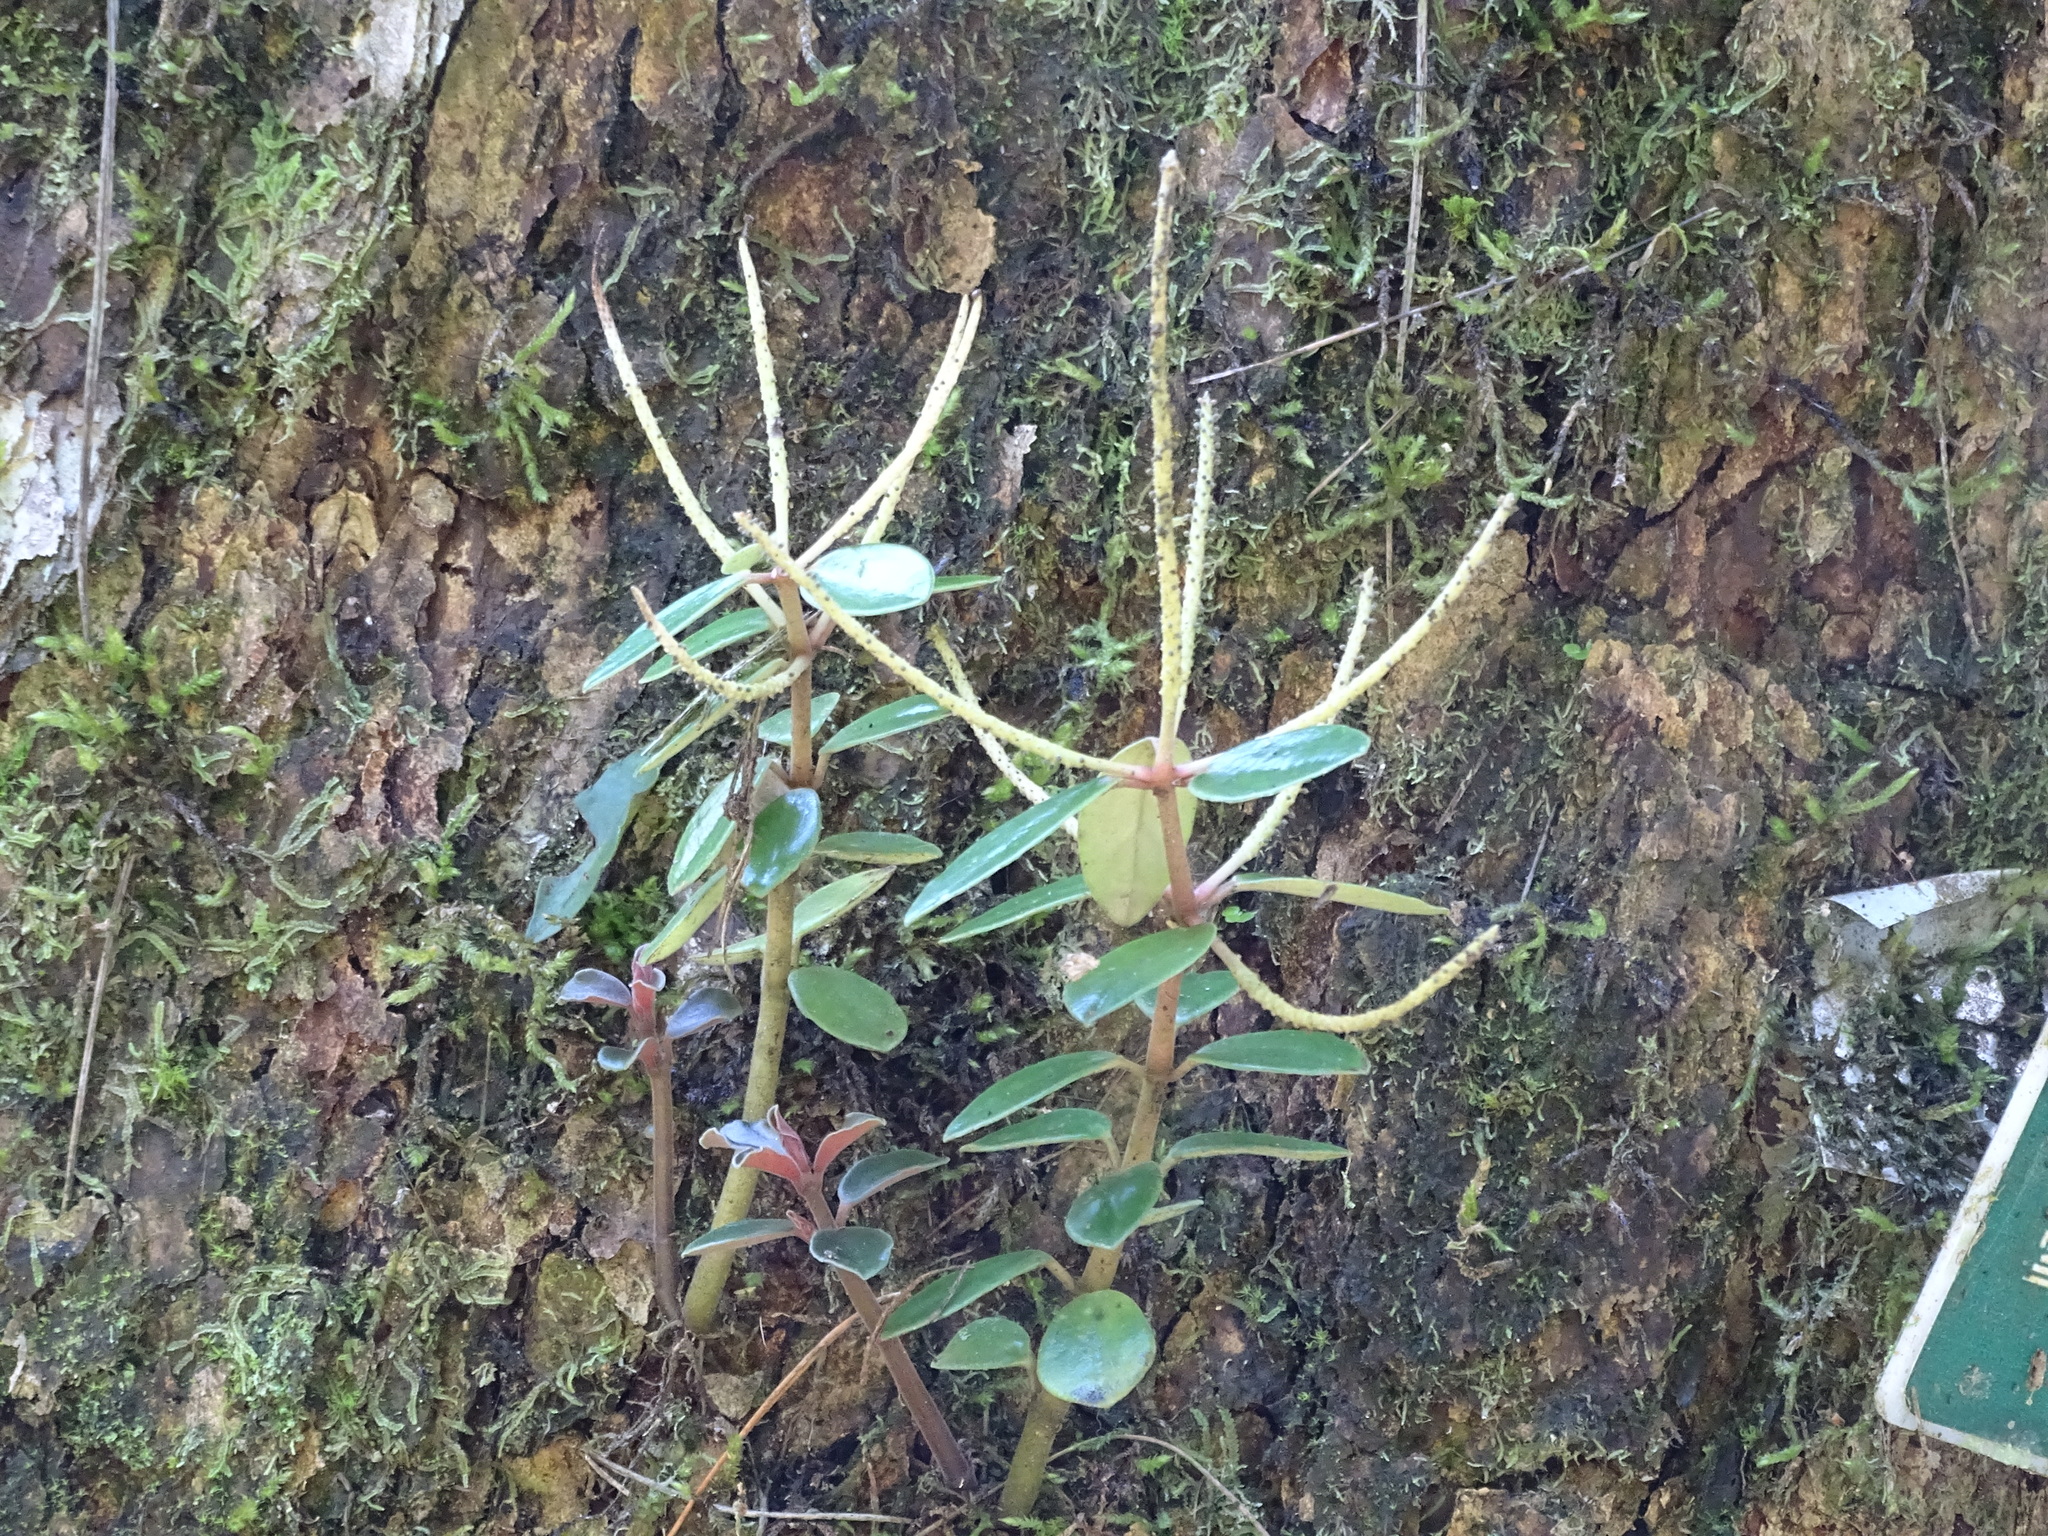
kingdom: Plantae
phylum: Tracheophyta
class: Magnoliopsida
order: Piperales
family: Piperaceae
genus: Peperomia
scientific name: Peperomia japonica
